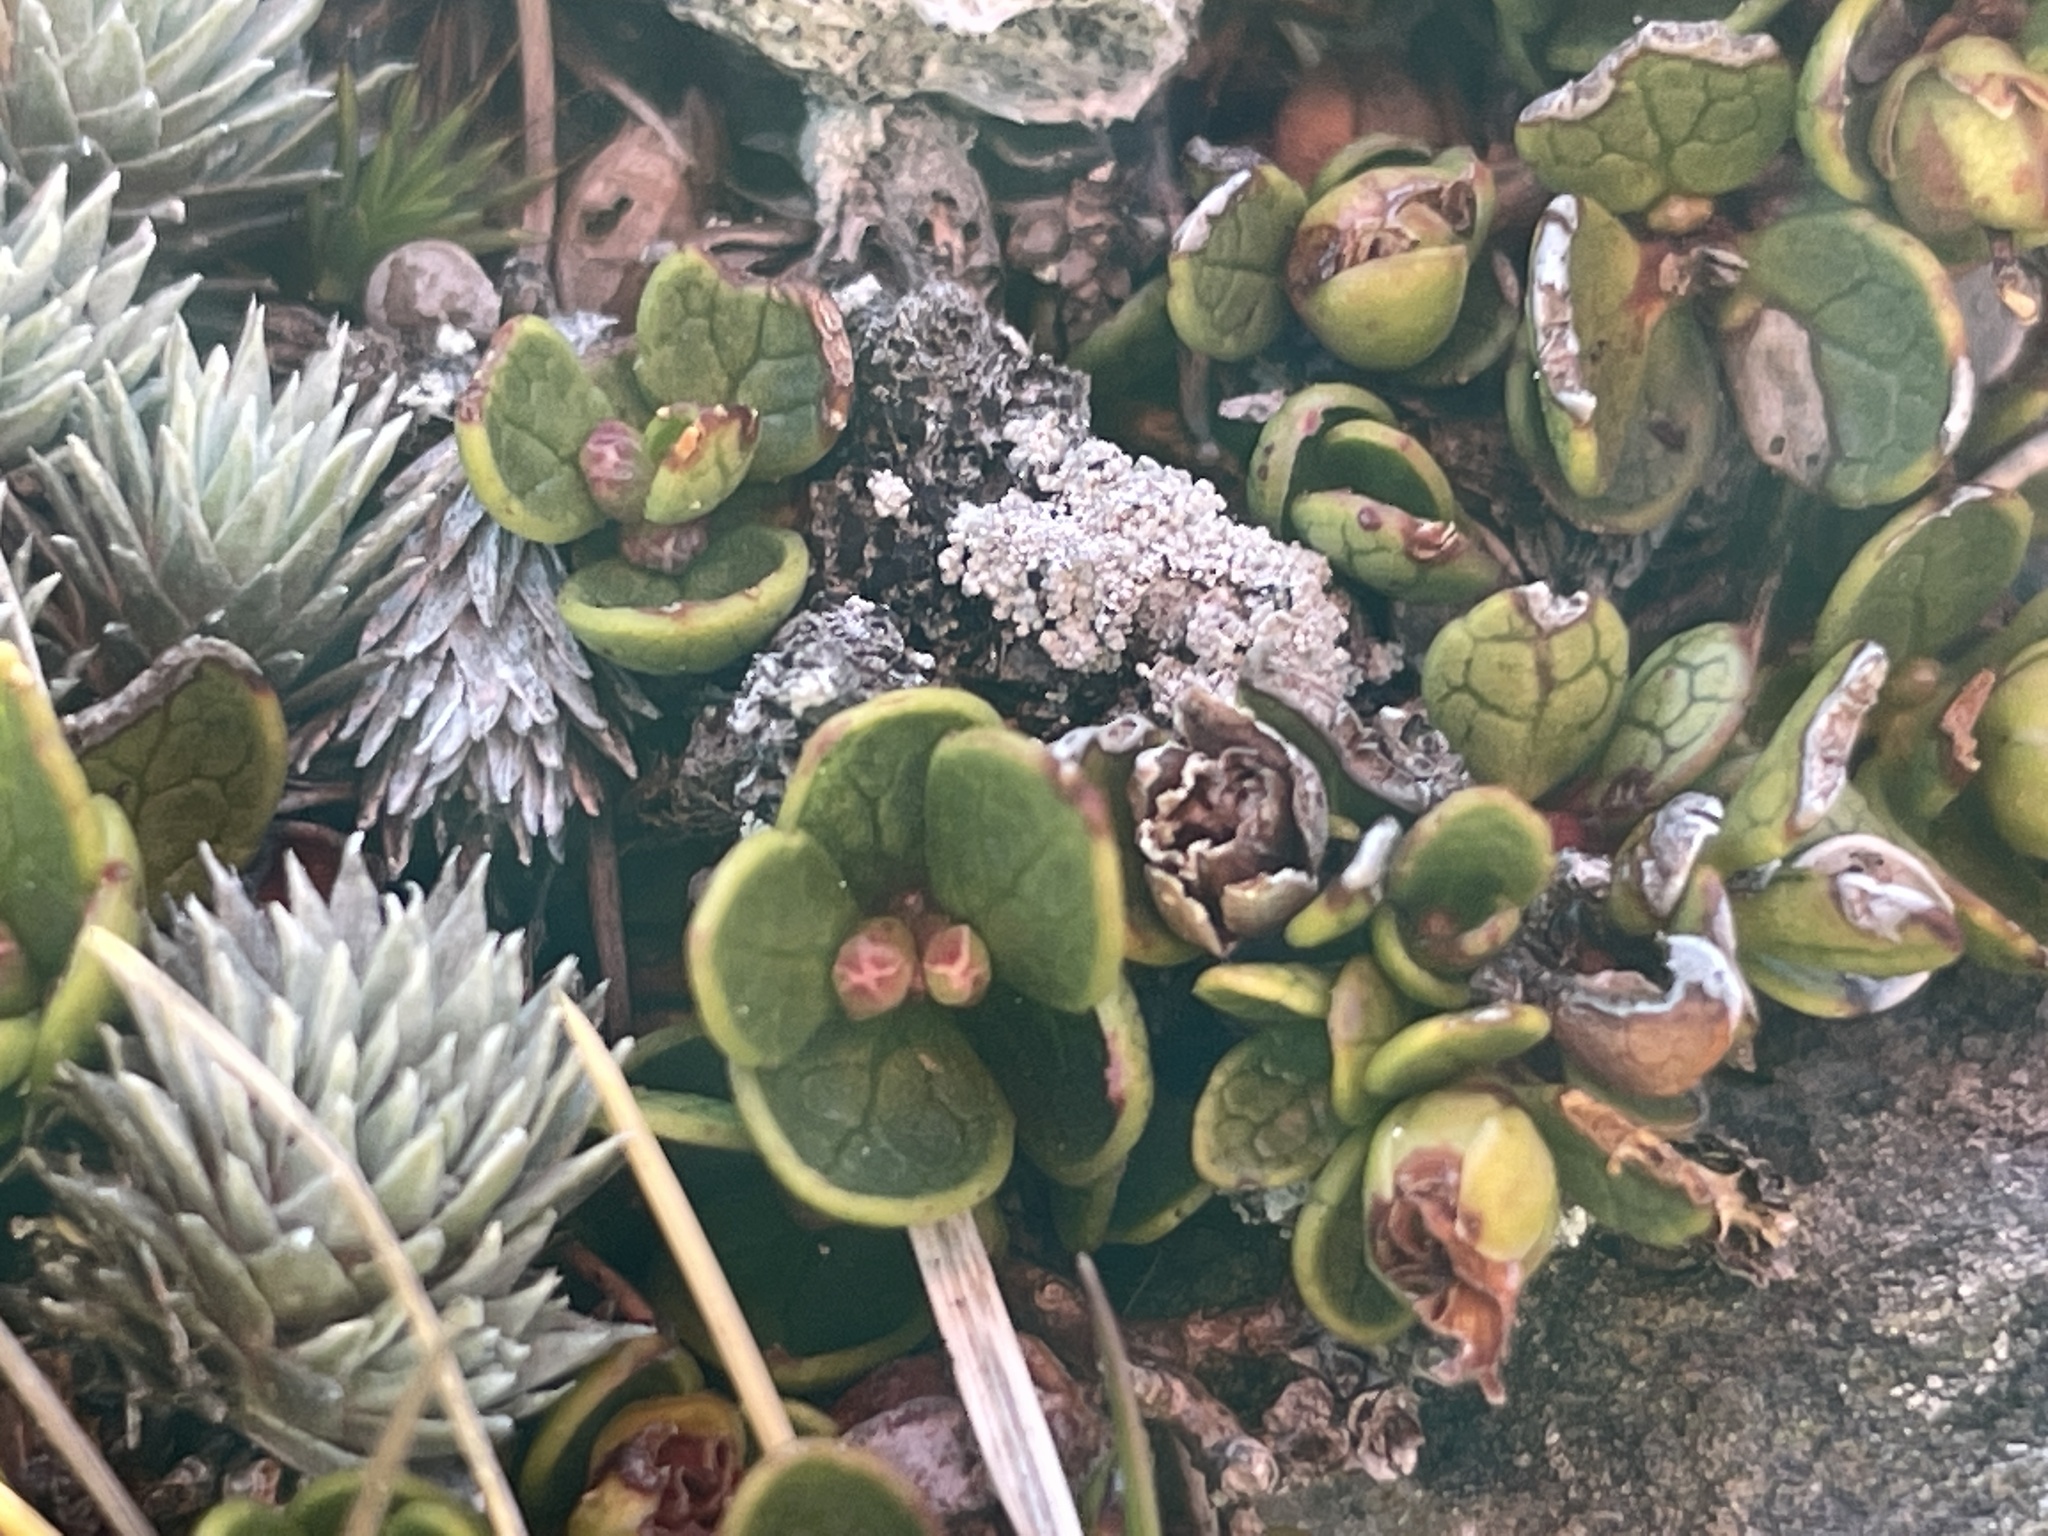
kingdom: Plantae
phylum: Tracheophyta
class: Magnoliopsida
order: Ericales
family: Ericaceae
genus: Gaultheria
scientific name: Gaultheria nubicola
